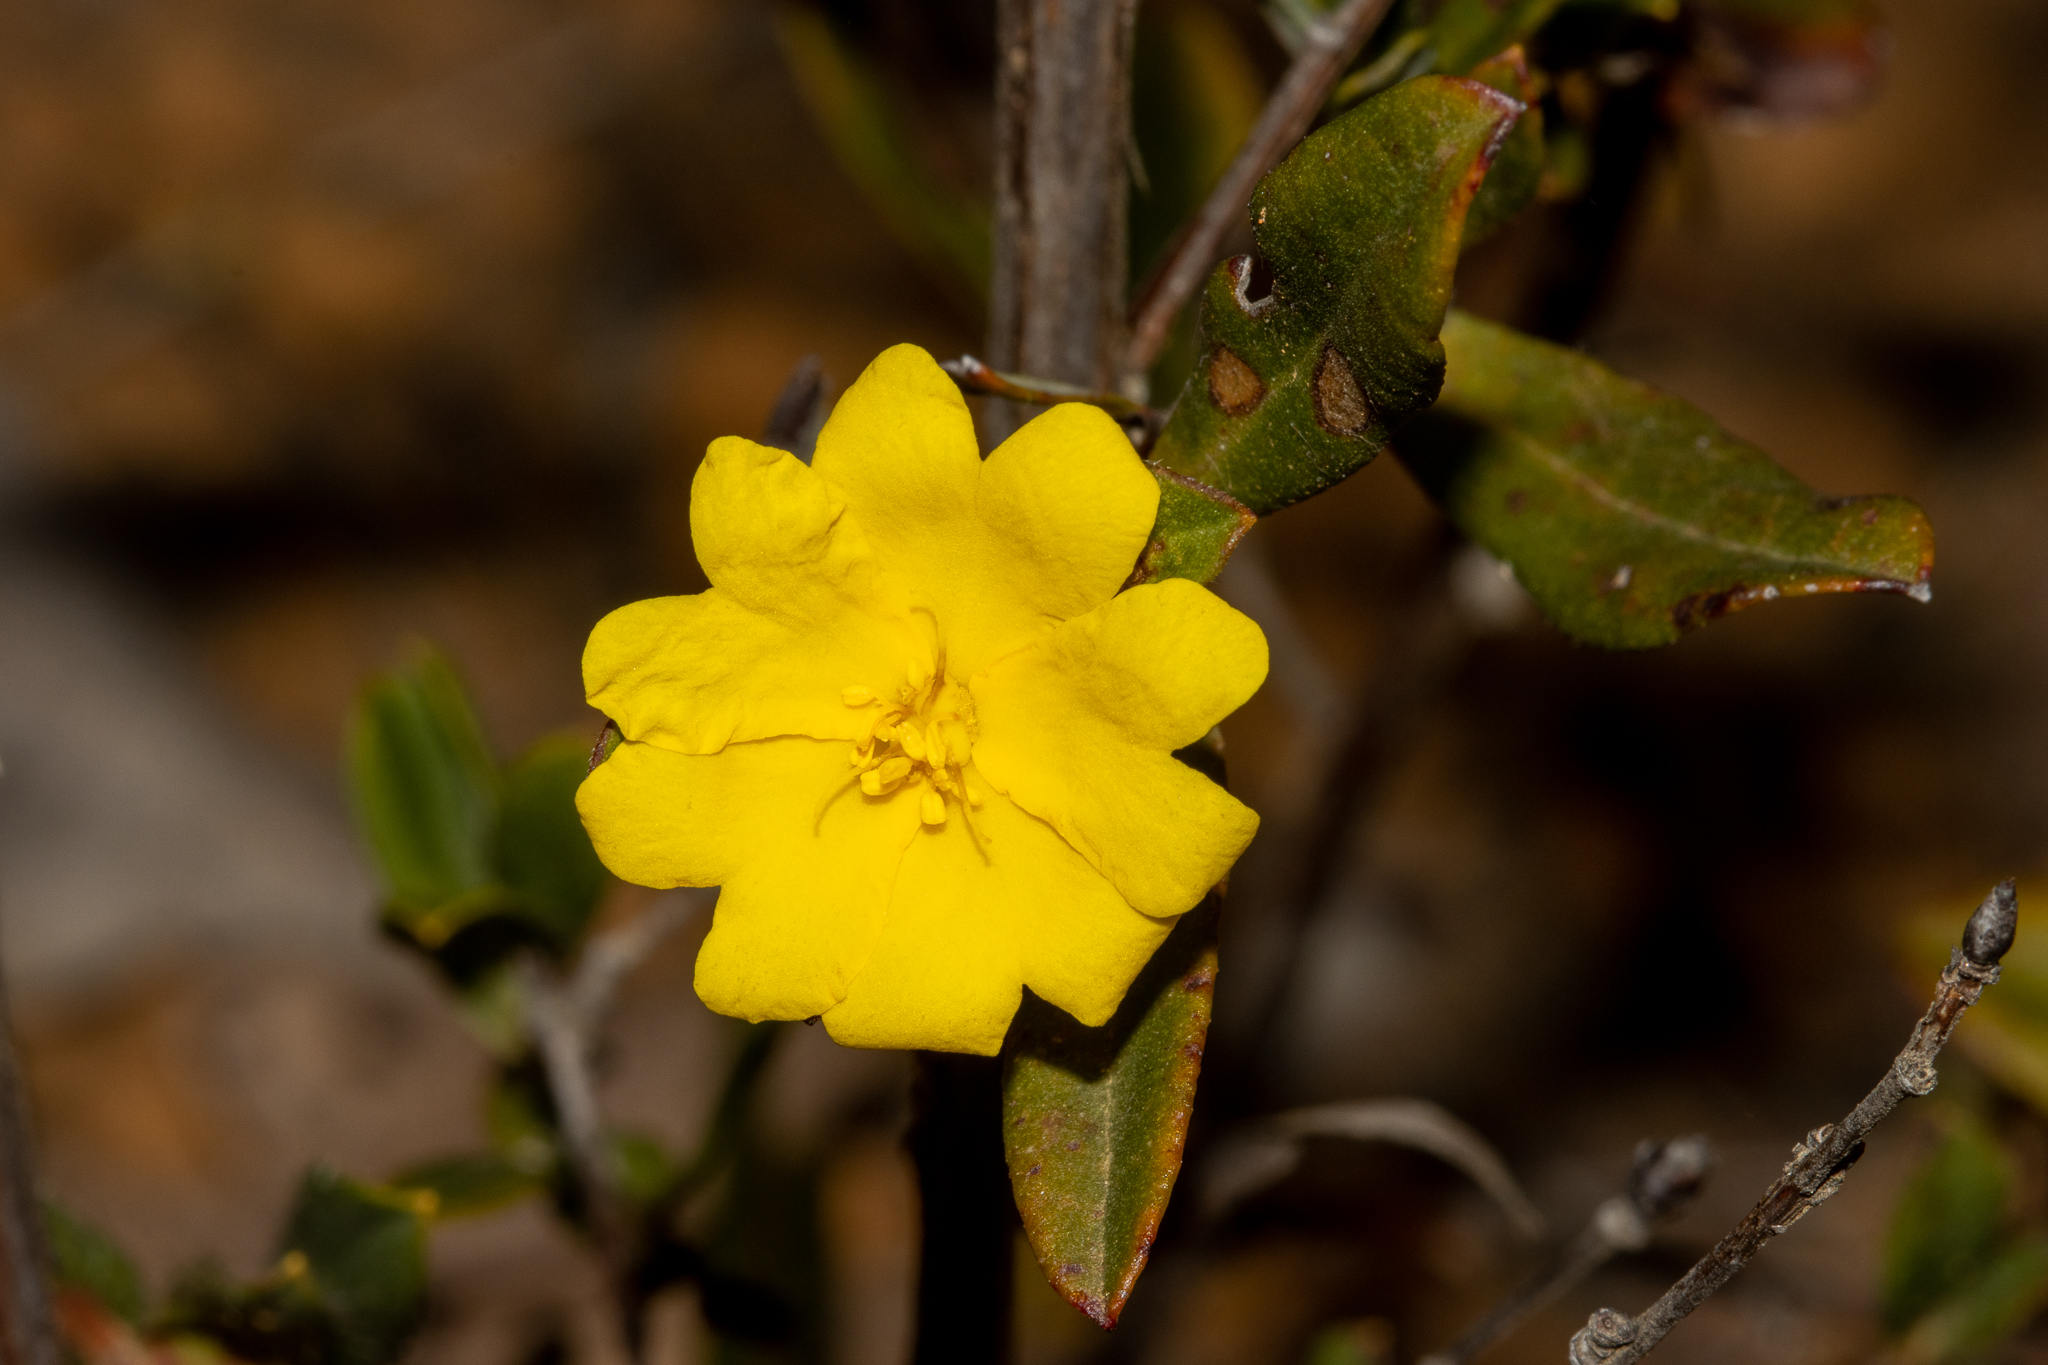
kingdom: Plantae
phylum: Tracheophyta
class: Magnoliopsida
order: Dilleniales
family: Dilleniaceae
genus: Hibbertia
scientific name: Hibbertia semipilosa
